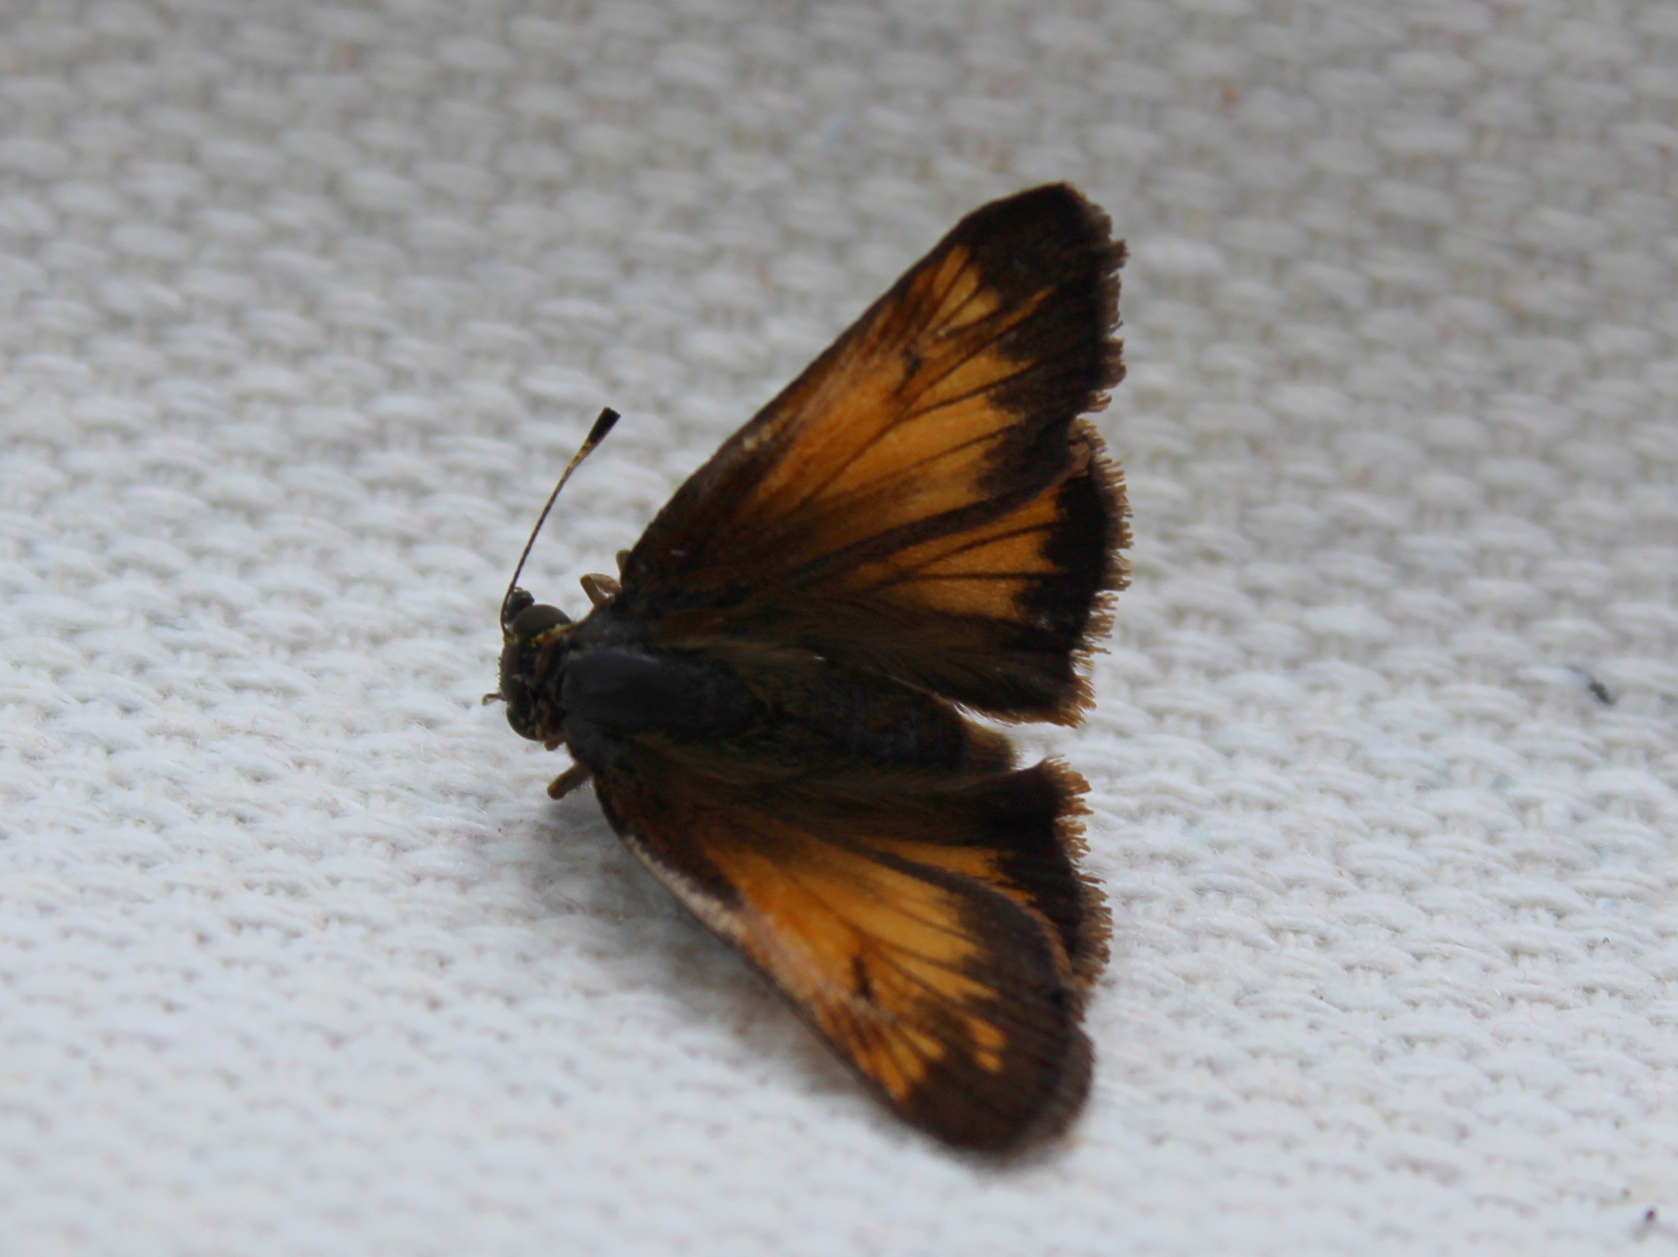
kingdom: Animalia
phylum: Arthropoda
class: Insecta
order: Lepidoptera
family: Hesperiidae
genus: Lon
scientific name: Lon hobomok
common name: Hobomok skipper
